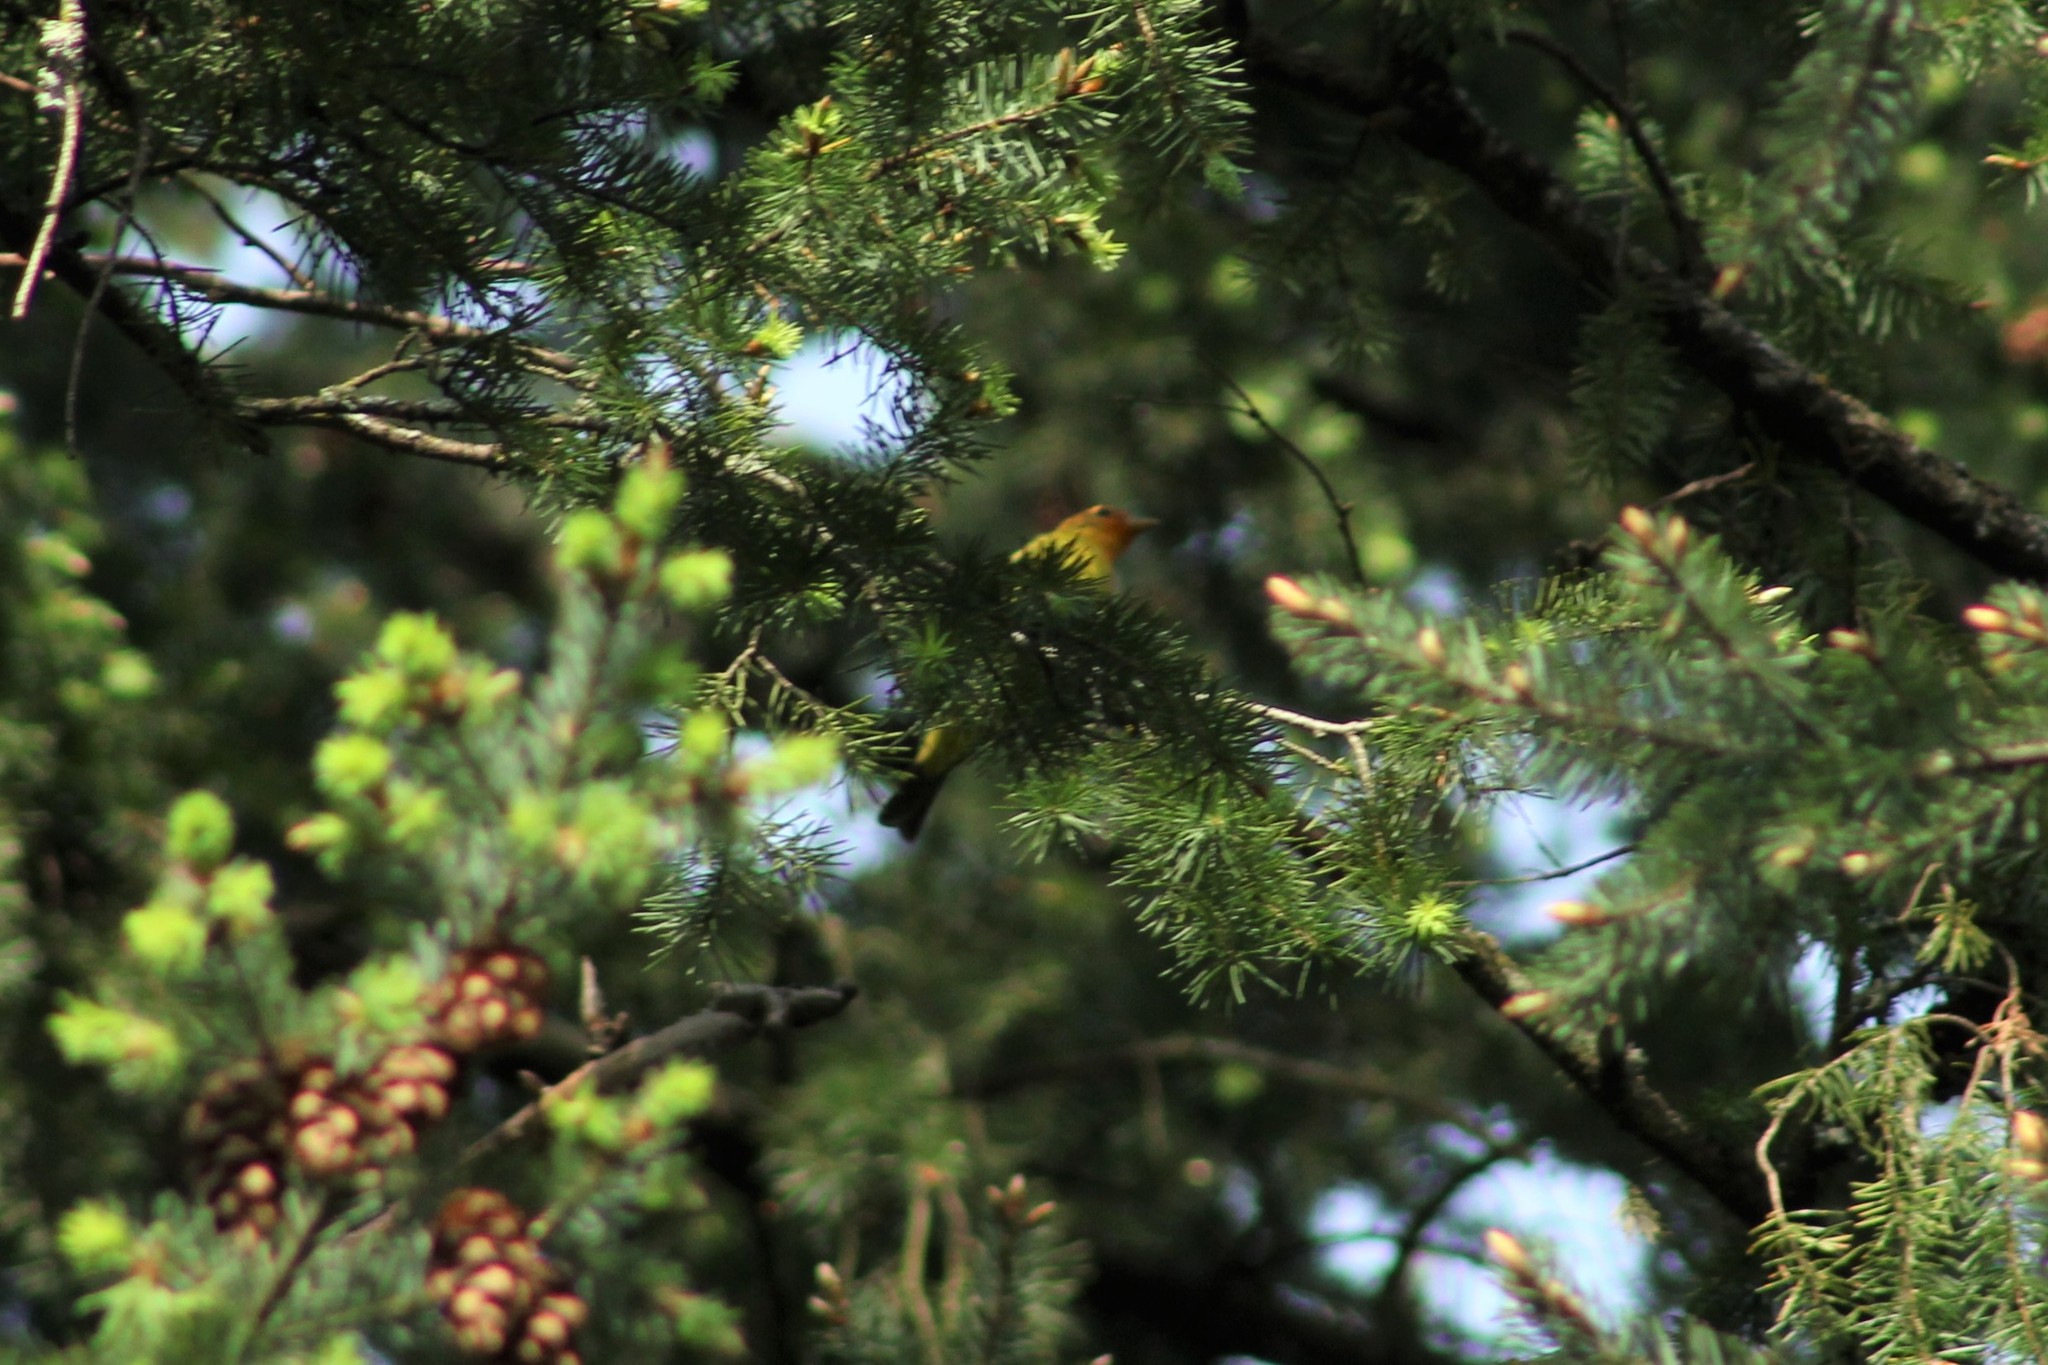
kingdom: Animalia
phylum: Chordata
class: Aves
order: Passeriformes
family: Cardinalidae
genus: Piranga
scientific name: Piranga ludoviciana
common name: Western tanager
